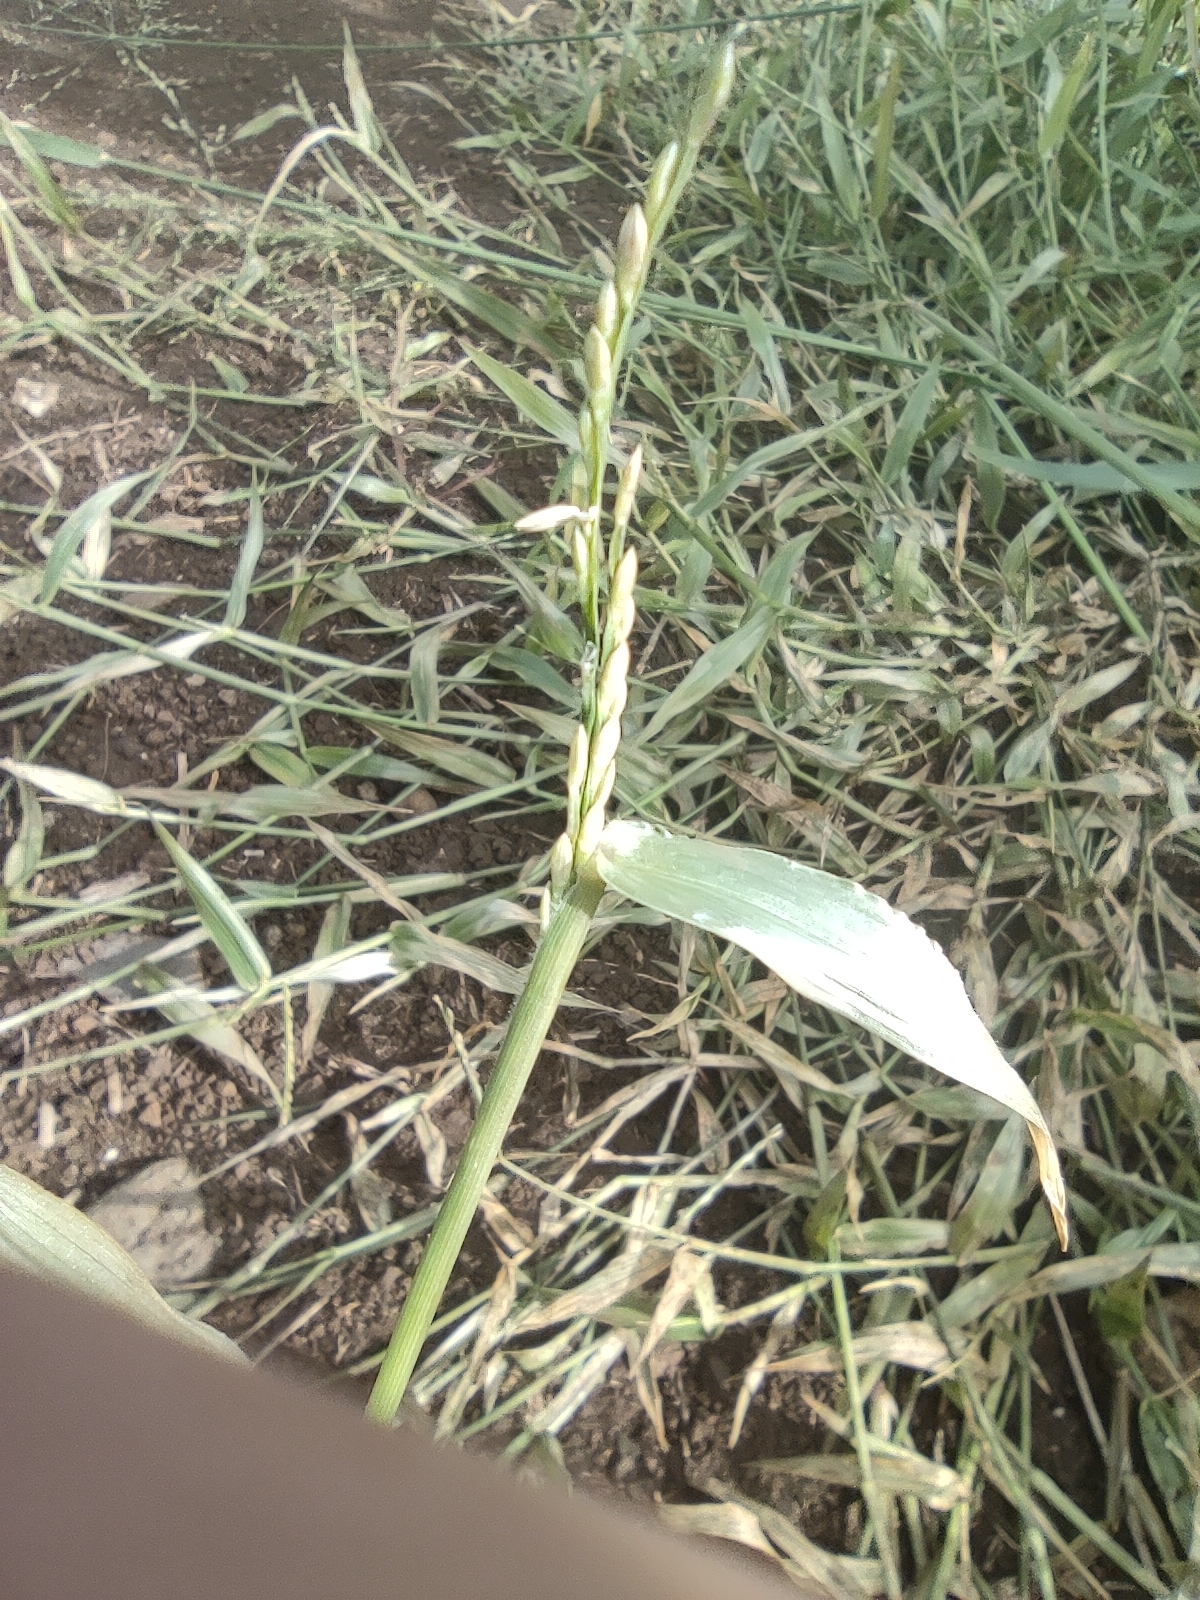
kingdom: Plantae
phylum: Tracheophyta
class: Liliopsida
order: Poales
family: Poaceae
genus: Urochloa
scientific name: Urochloa distachyos
